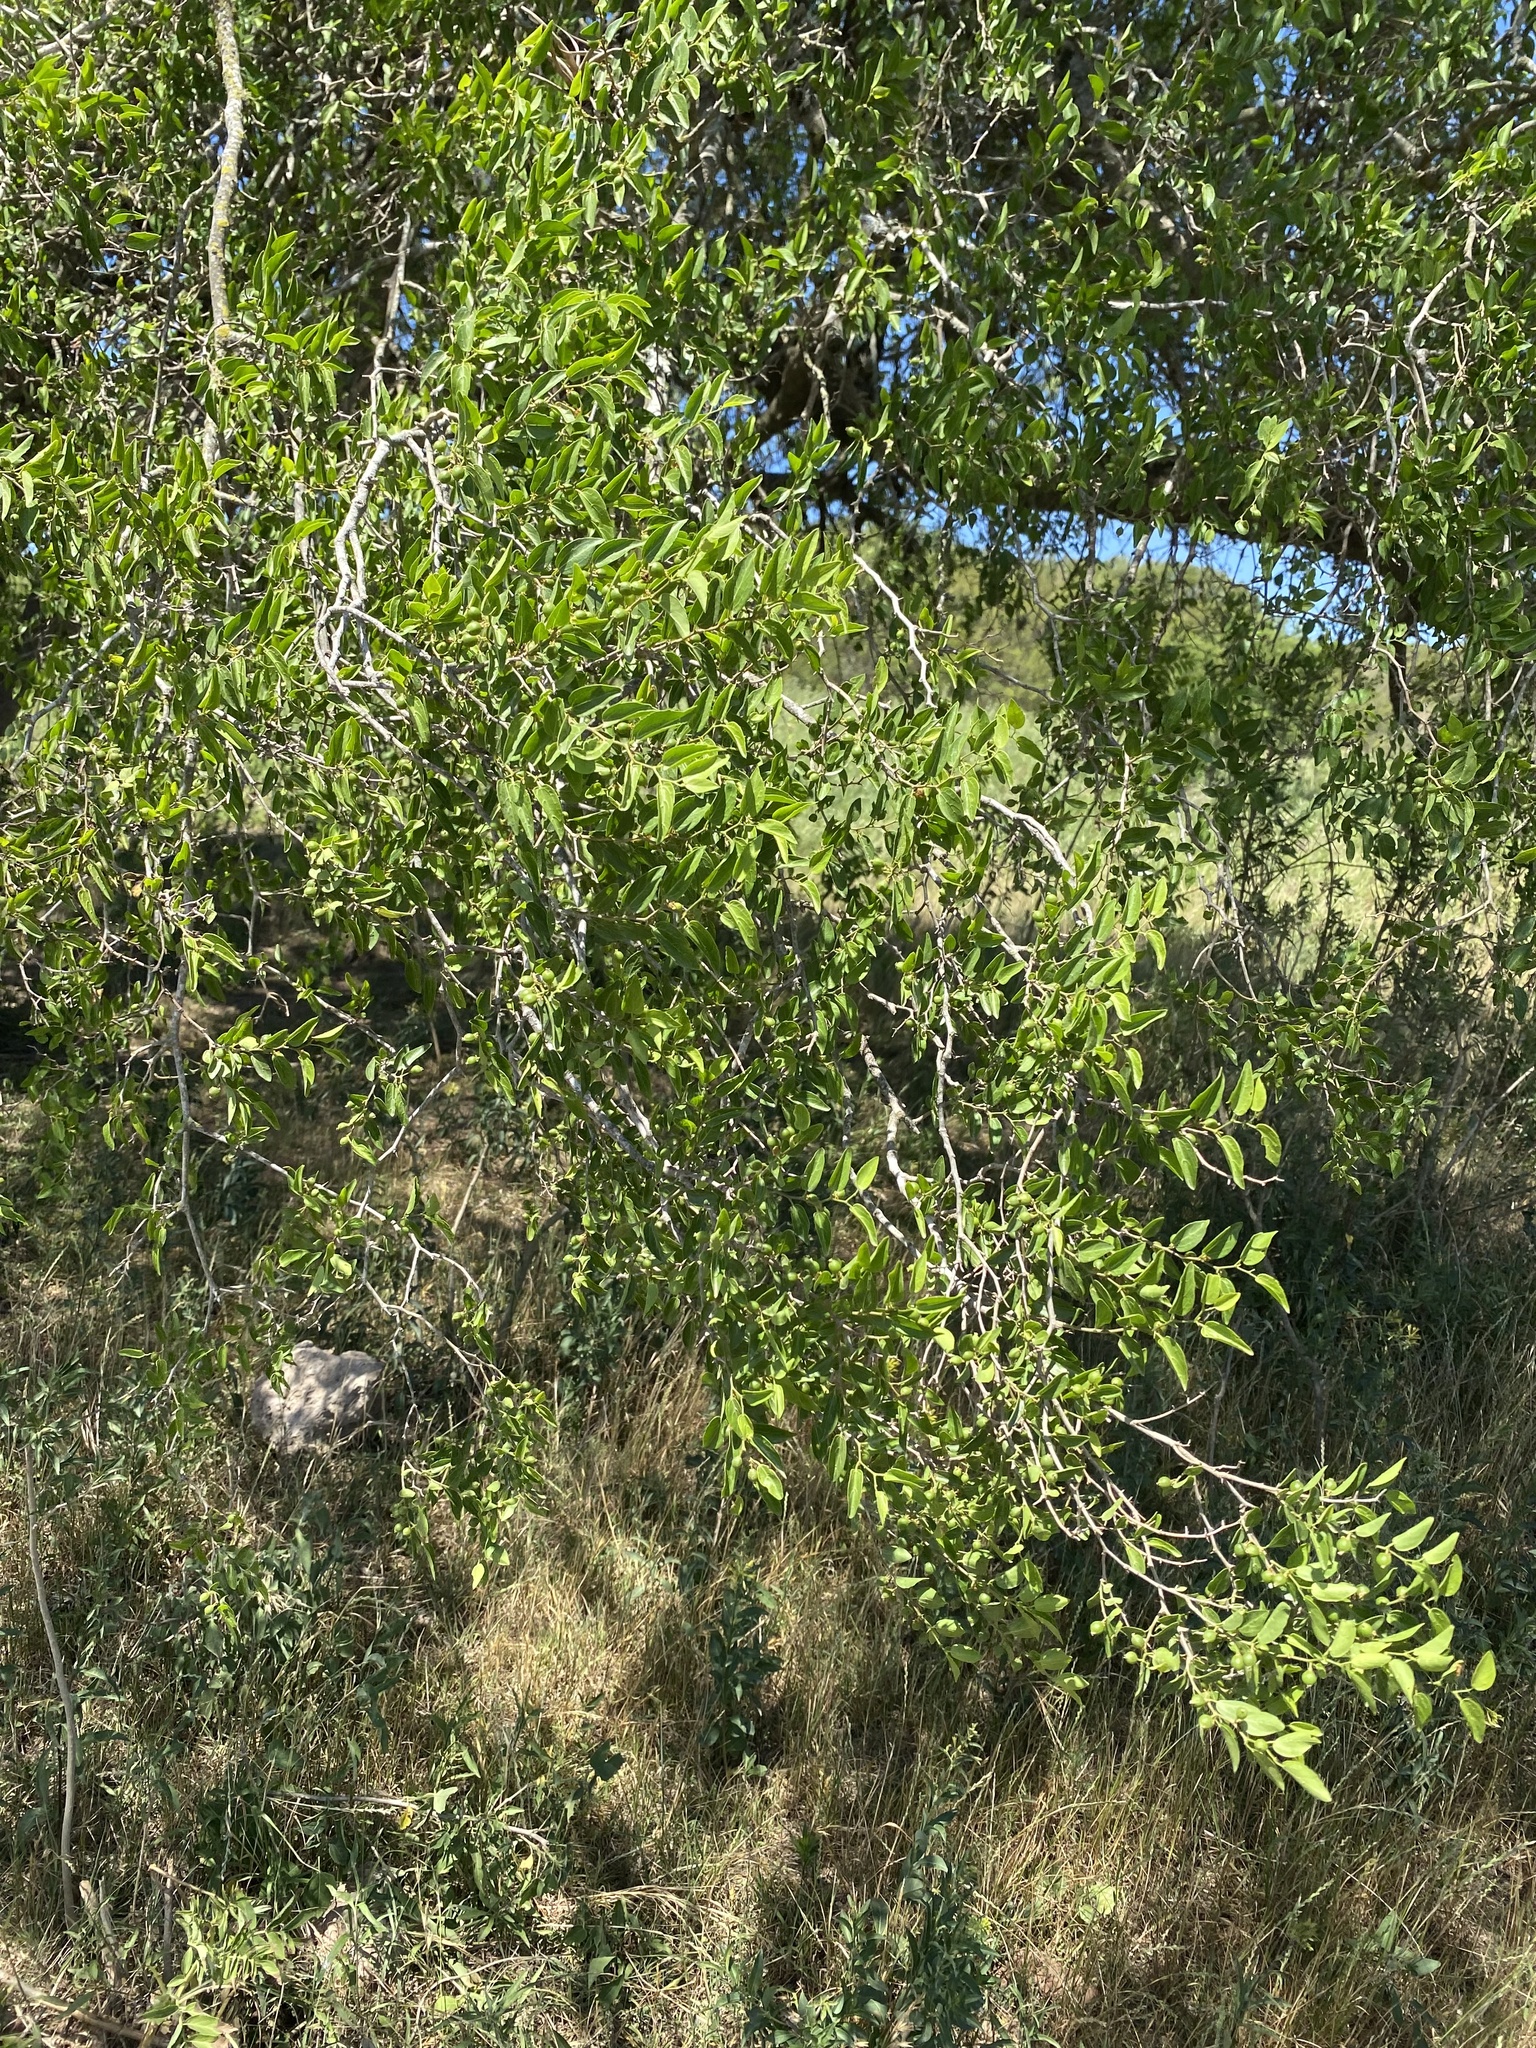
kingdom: Plantae
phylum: Tracheophyta
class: Magnoliopsida
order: Rosales
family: Cannabaceae
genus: Celtis
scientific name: Celtis tala
